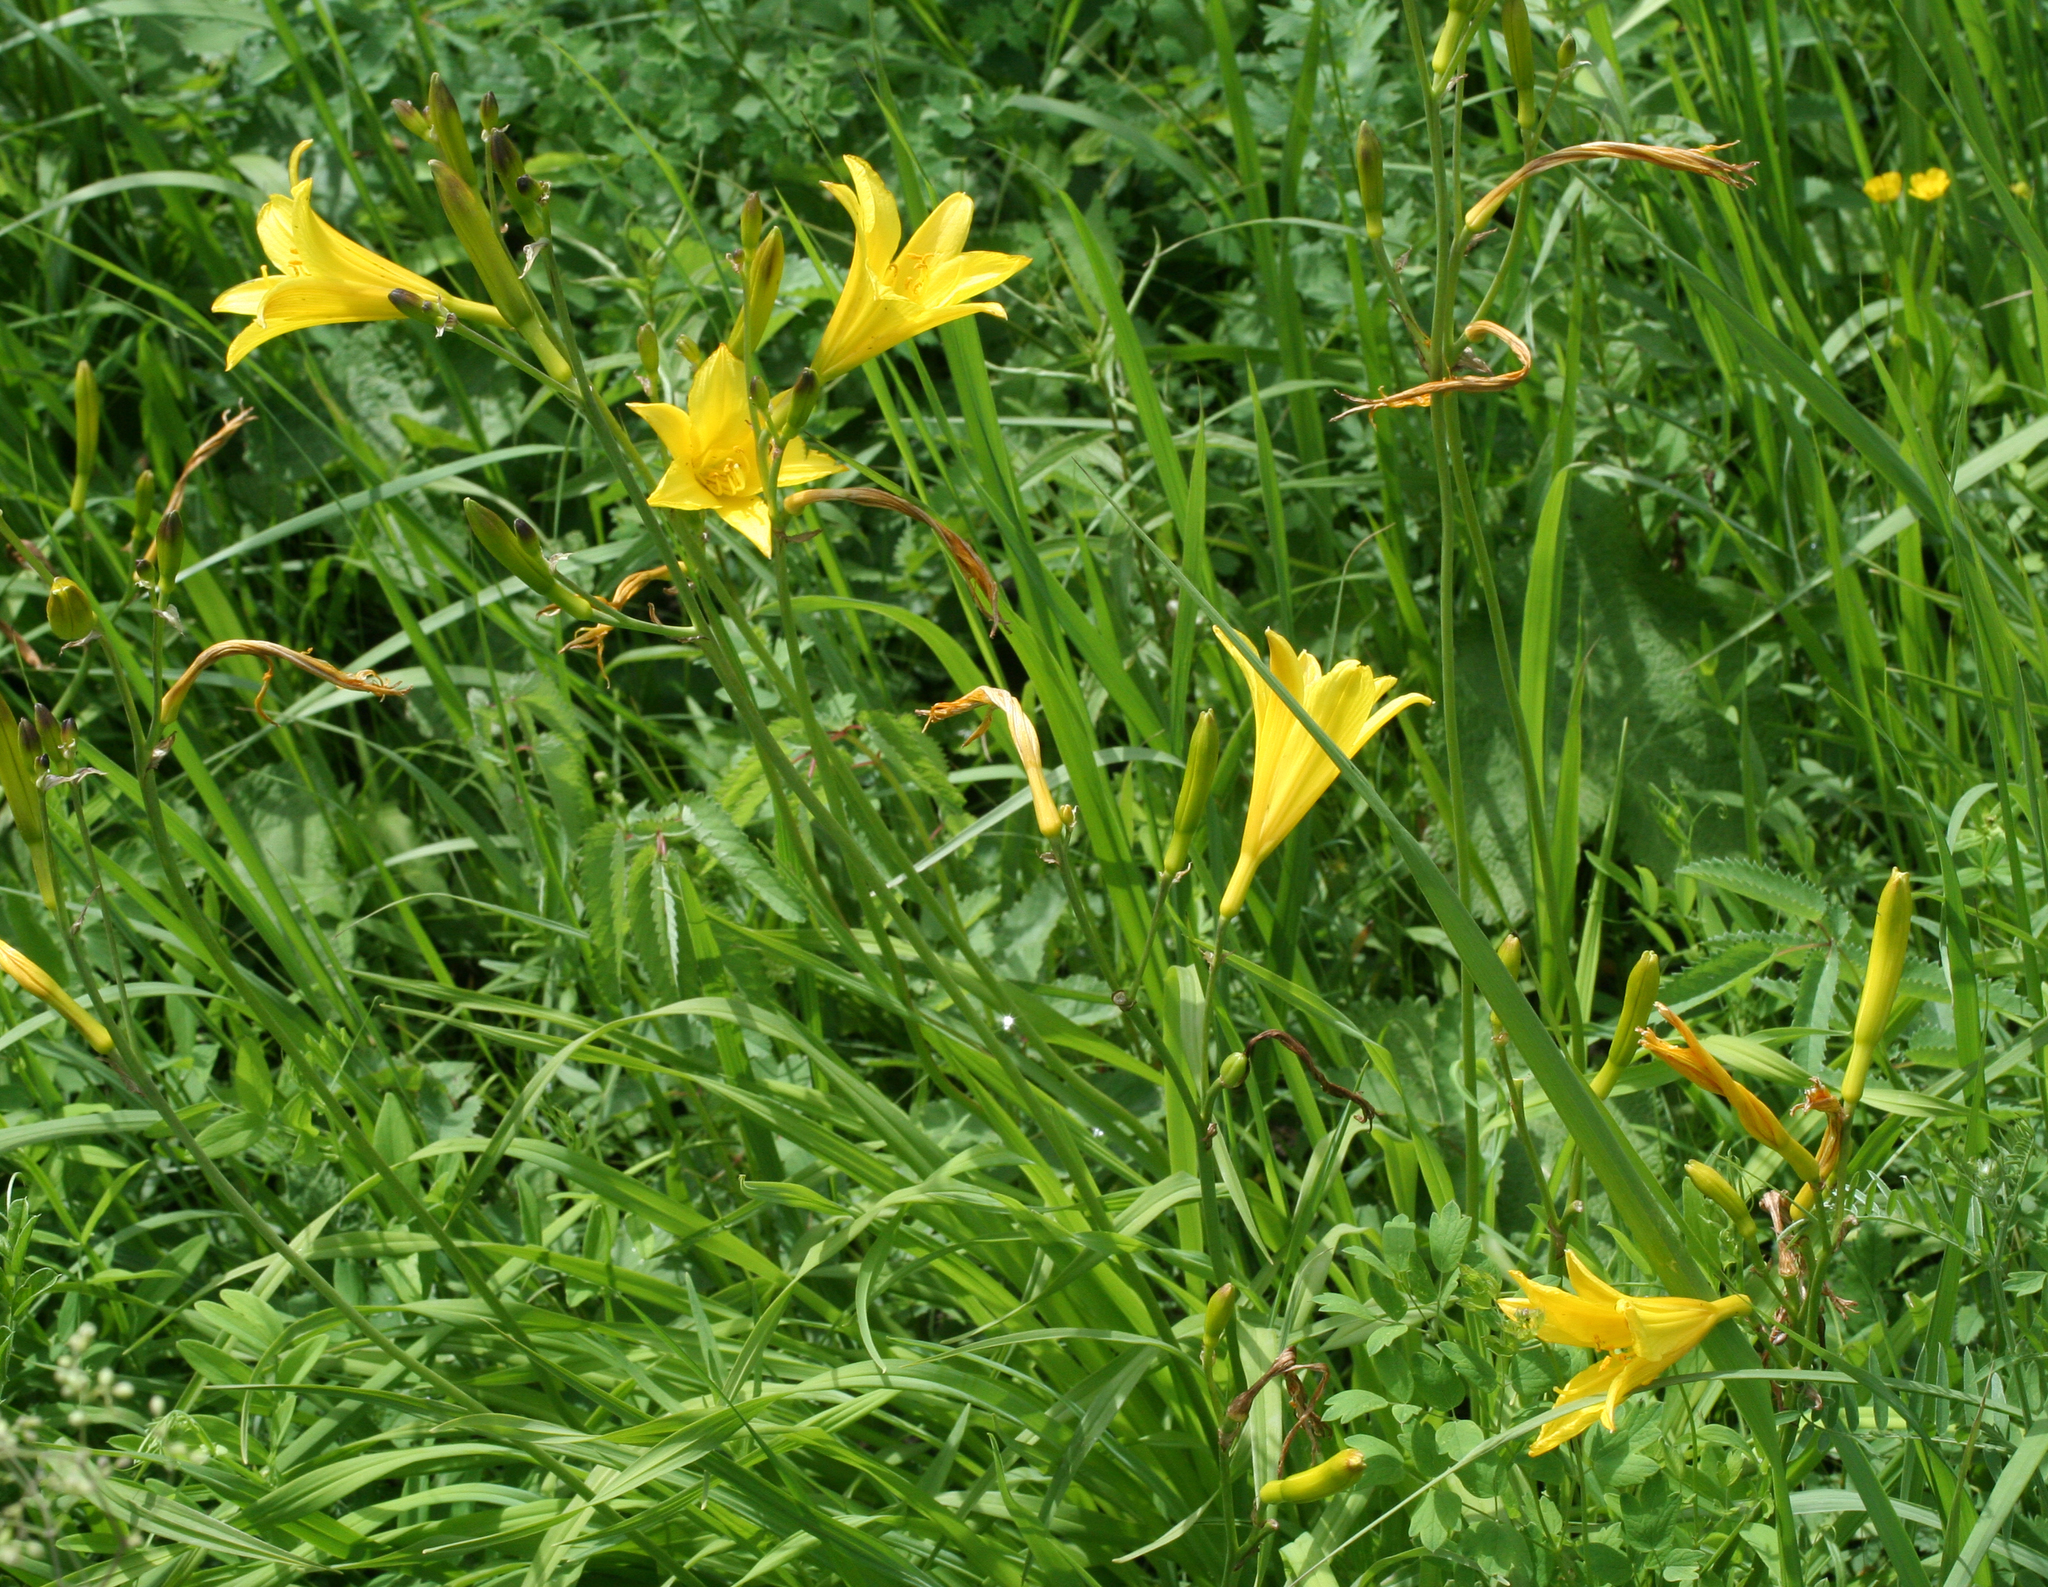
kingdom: Plantae
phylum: Tracheophyta
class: Liliopsida
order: Asparagales
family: Asphodelaceae
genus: Hemerocallis
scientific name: Hemerocallis minor
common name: Small daylily
